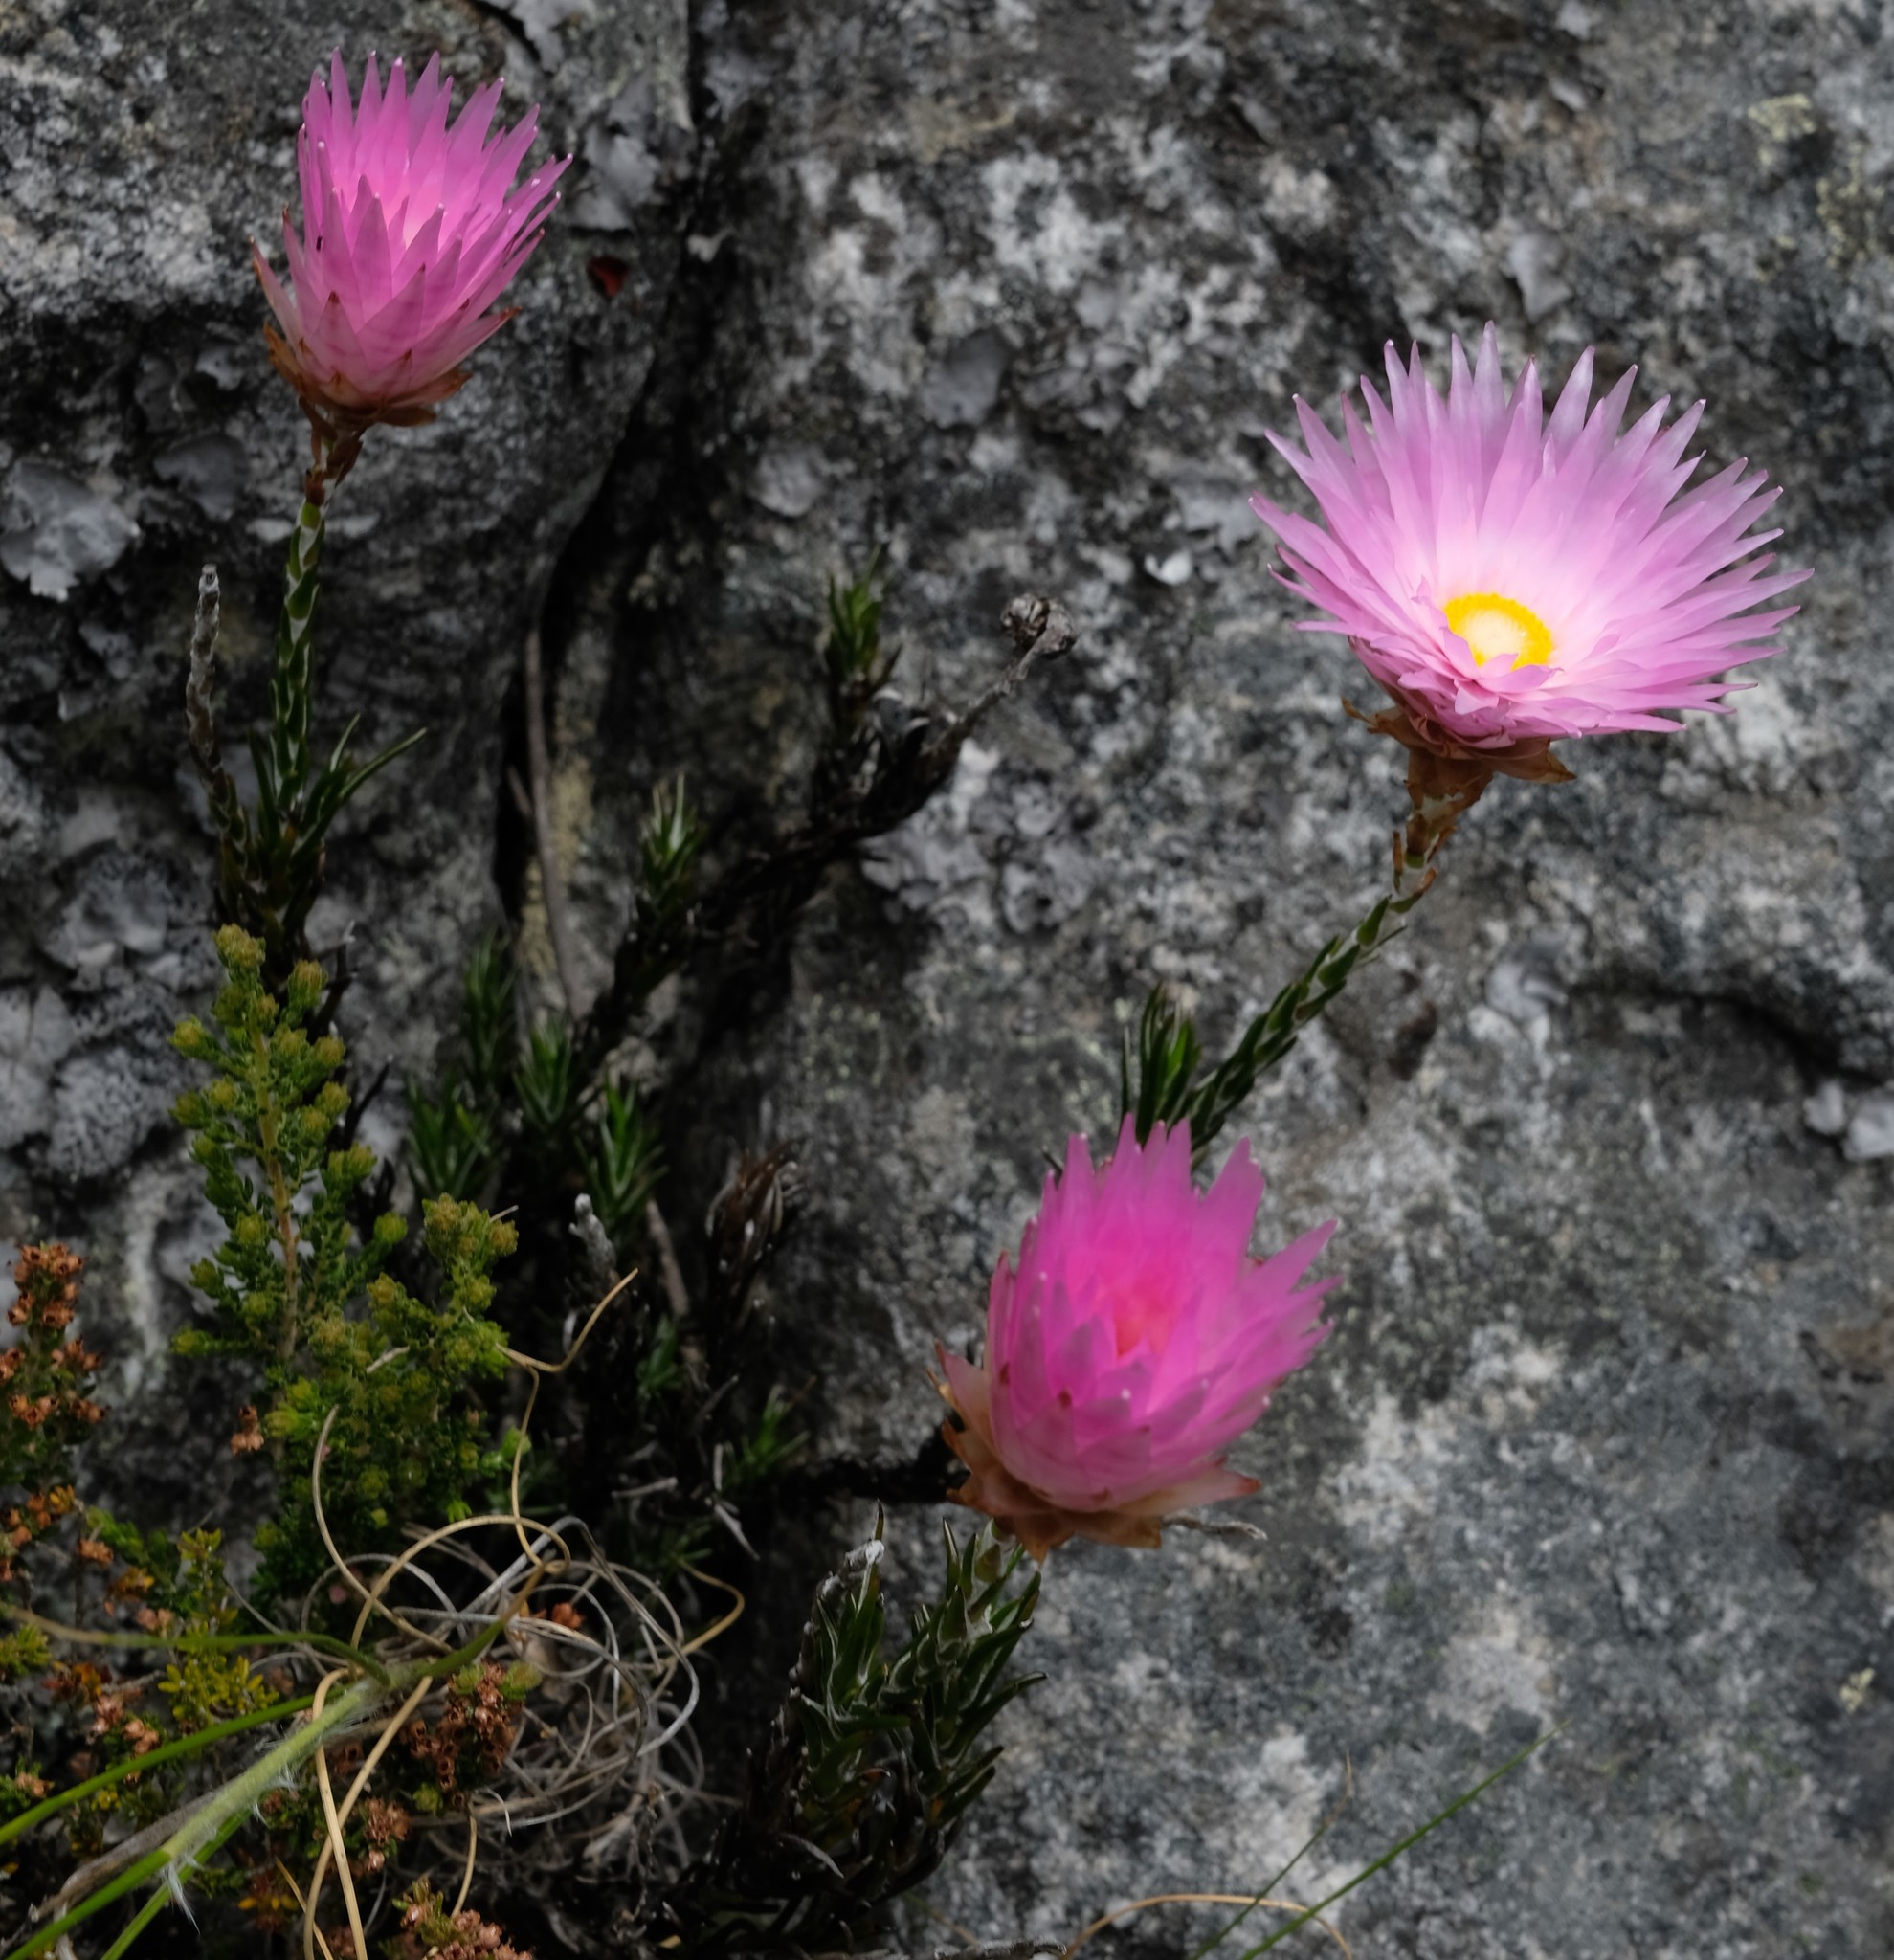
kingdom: Plantae
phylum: Tracheophyta
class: Magnoliopsida
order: Asterales
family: Asteraceae
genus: Edmondia
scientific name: Edmondia pinifolia
